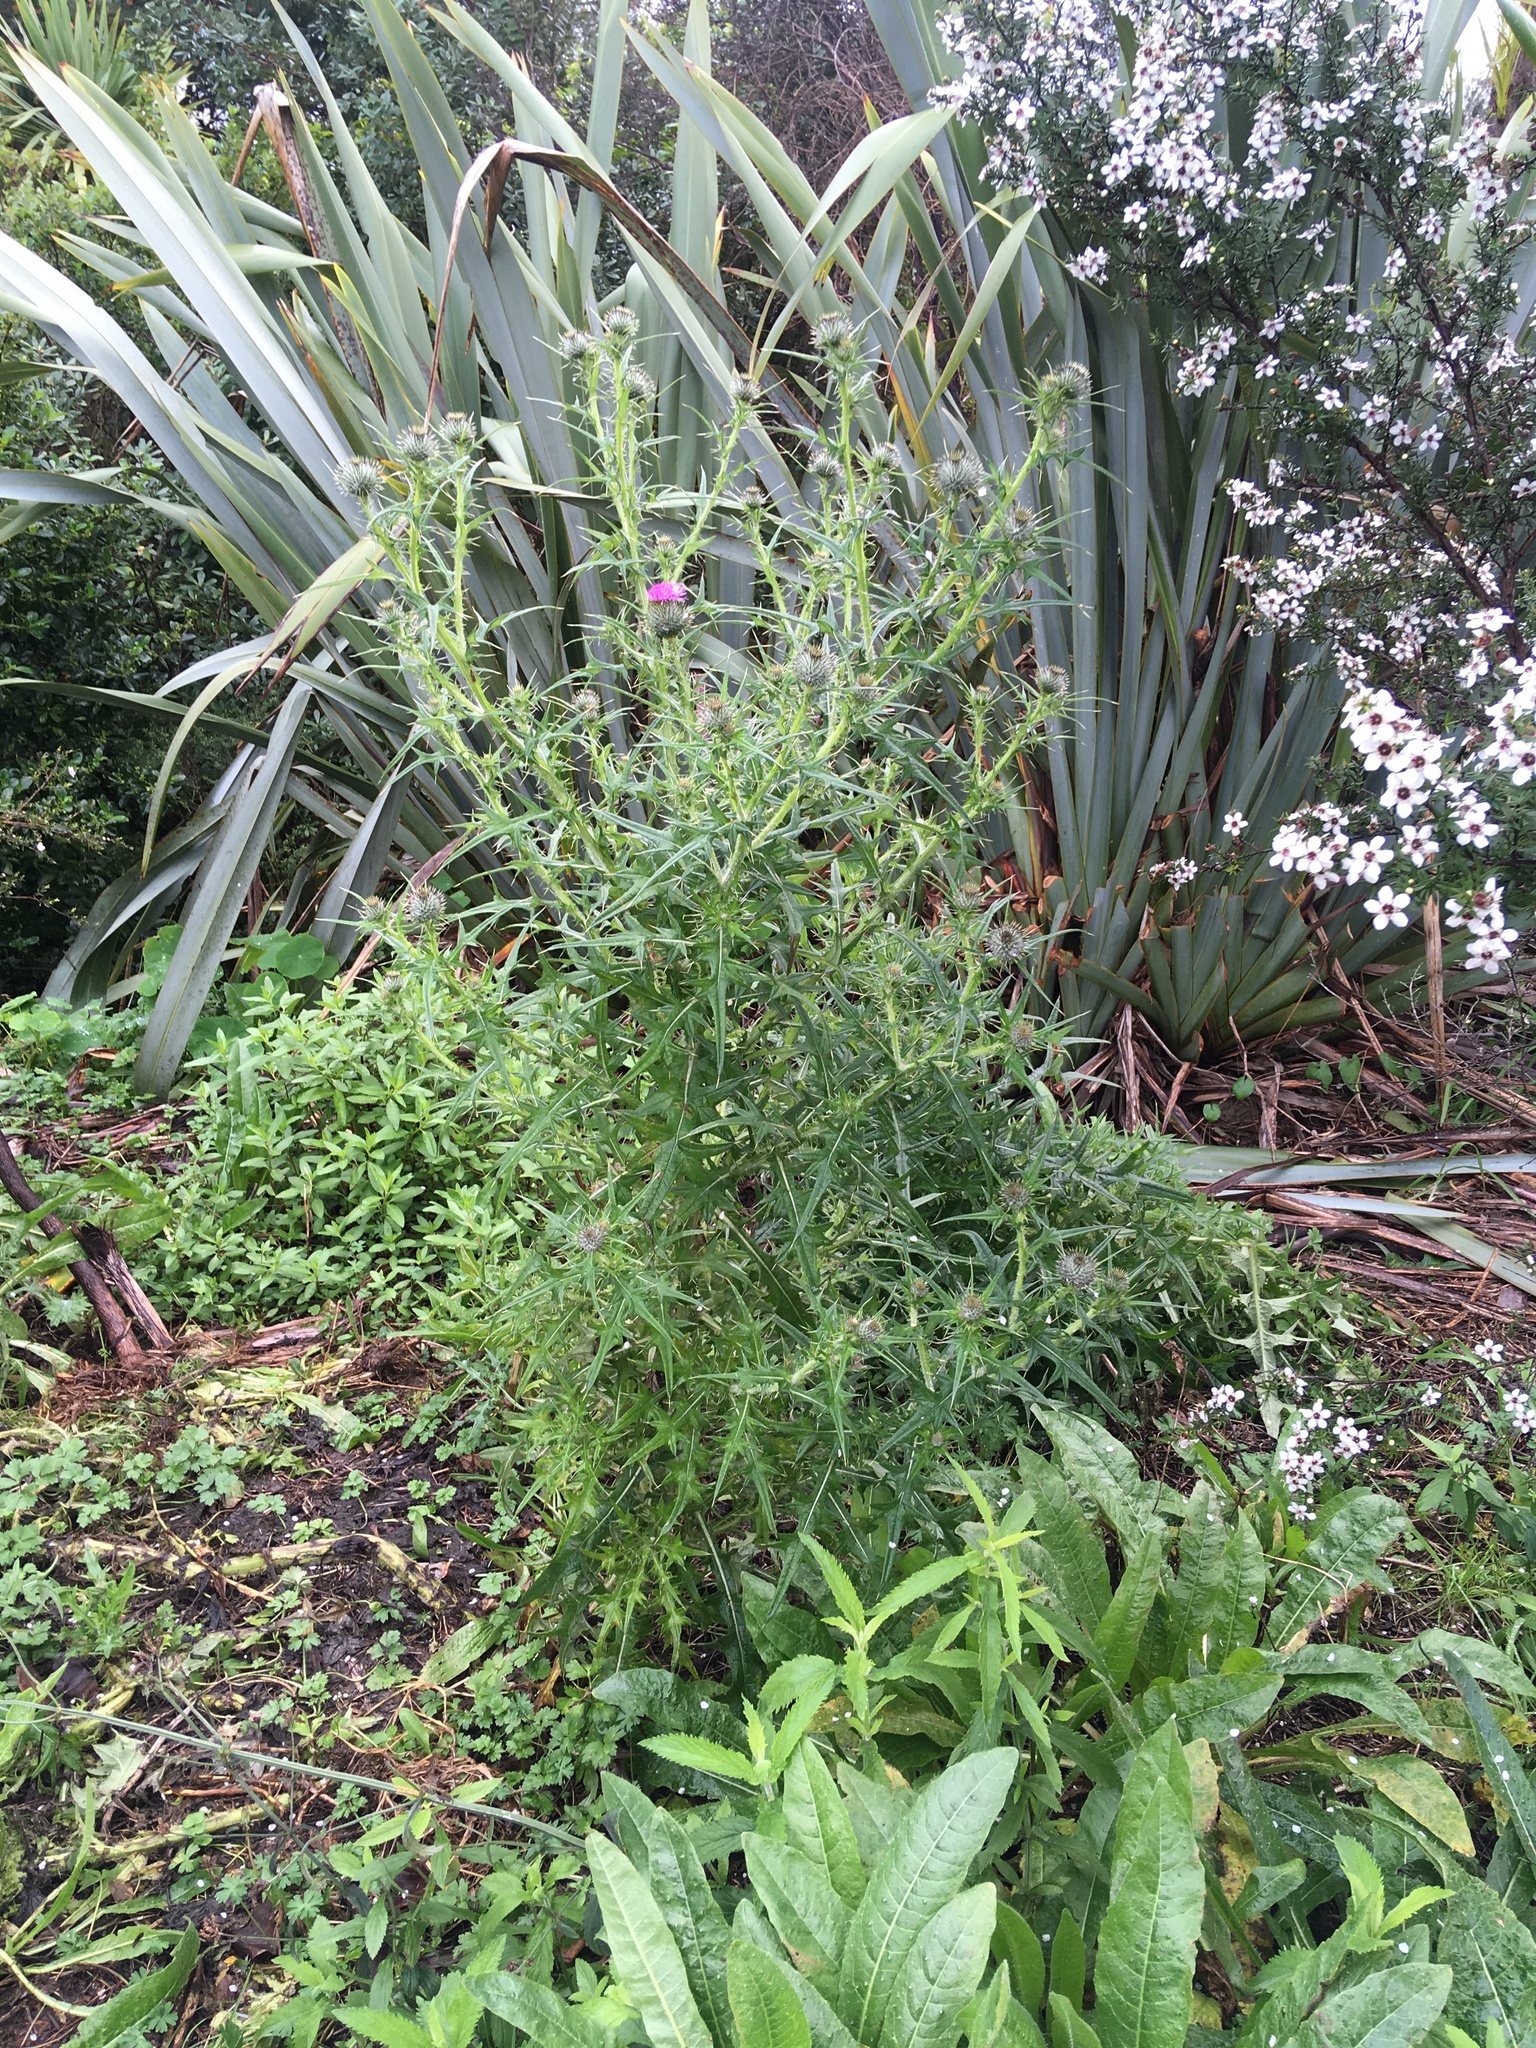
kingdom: Plantae
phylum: Tracheophyta
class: Magnoliopsida
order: Asterales
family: Asteraceae
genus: Cirsium
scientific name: Cirsium vulgare
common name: Bull thistle
